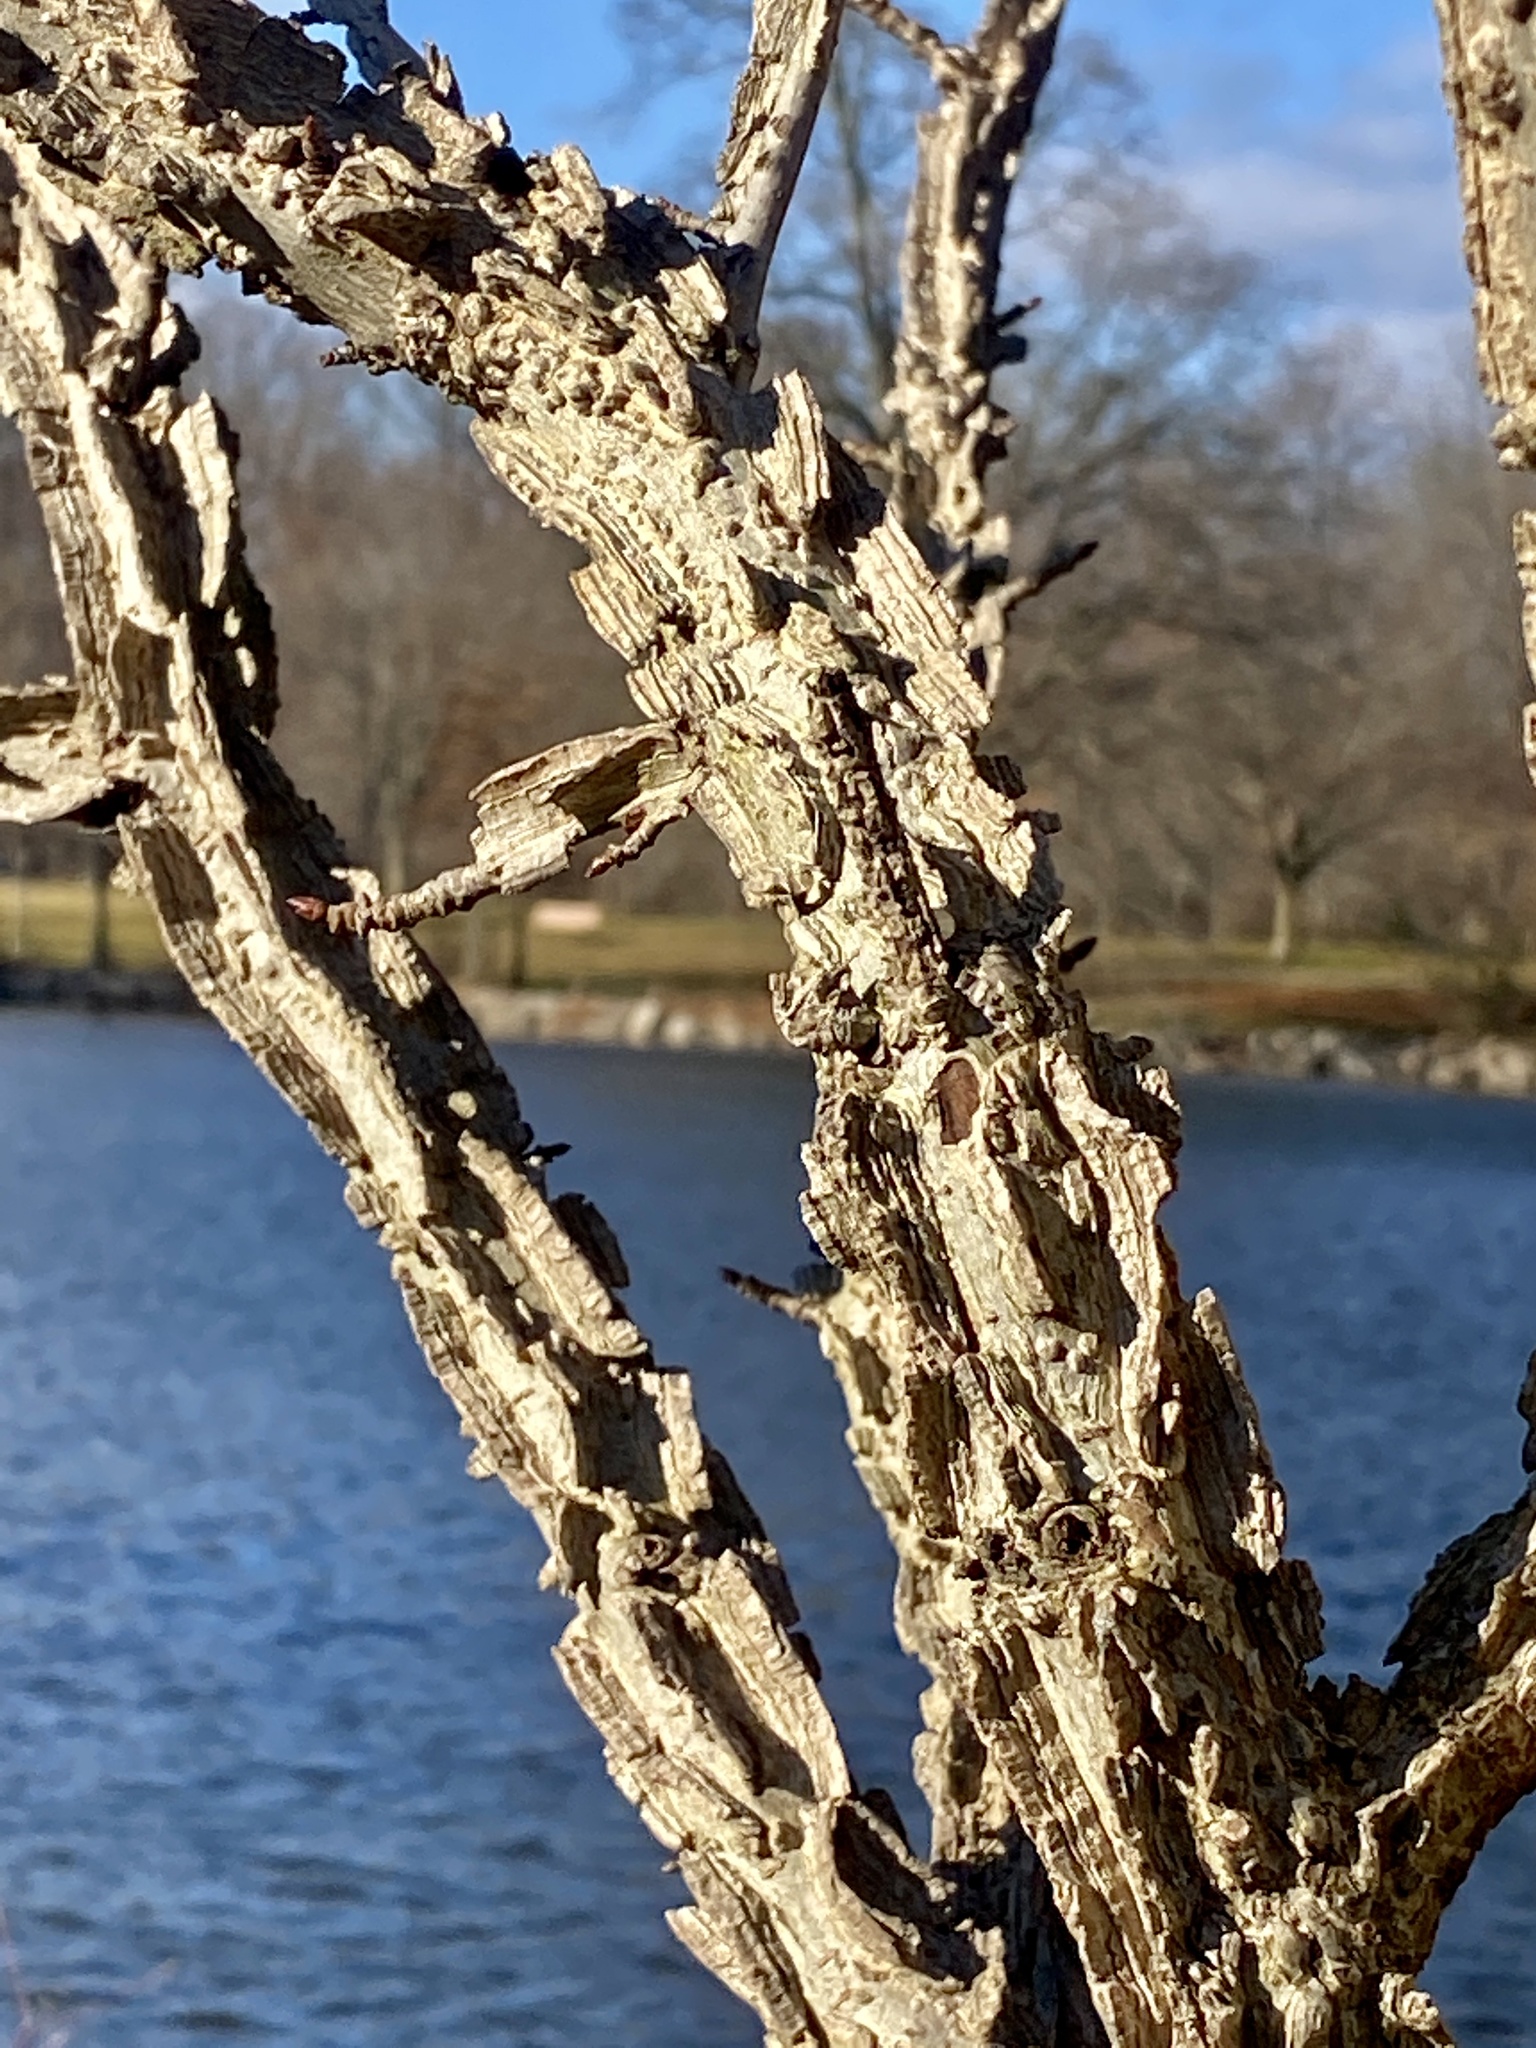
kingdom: Plantae
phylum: Tracheophyta
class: Magnoliopsida
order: Saxifragales
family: Altingiaceae
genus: Liquidambar
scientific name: Liquidambar styraciflua
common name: Sweet gum
